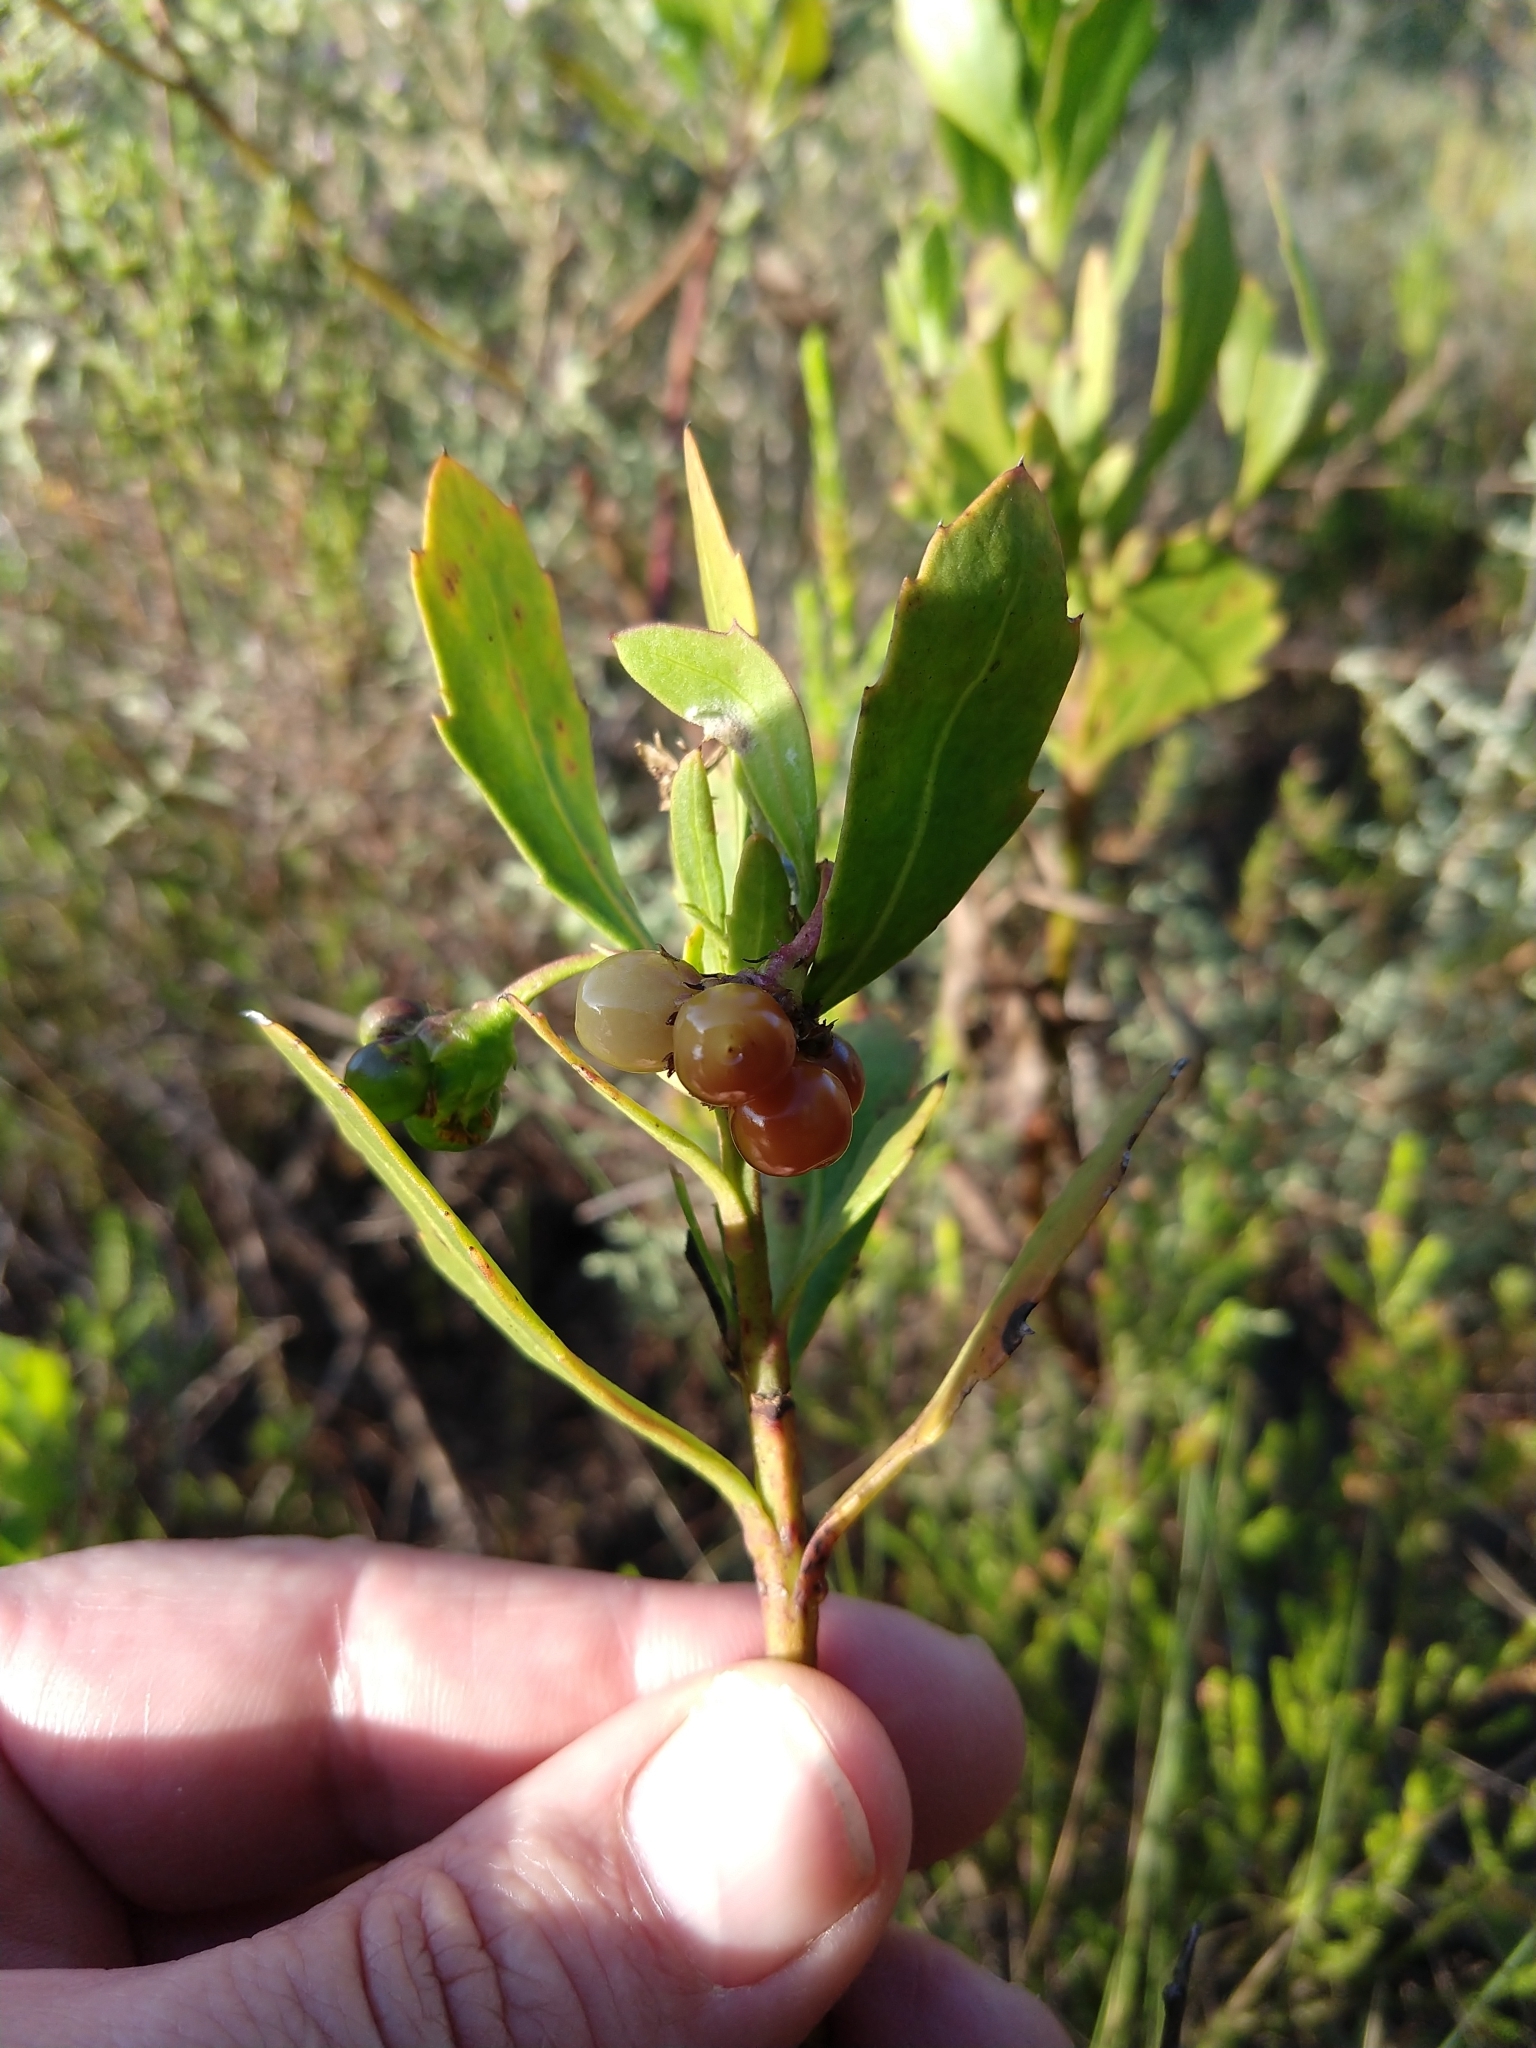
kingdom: Plantae
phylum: Tracheophyta
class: Magnoliopsida
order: Asterales
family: Asteraceae
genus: Osteospermum
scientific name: Osteospermum moniliferum
